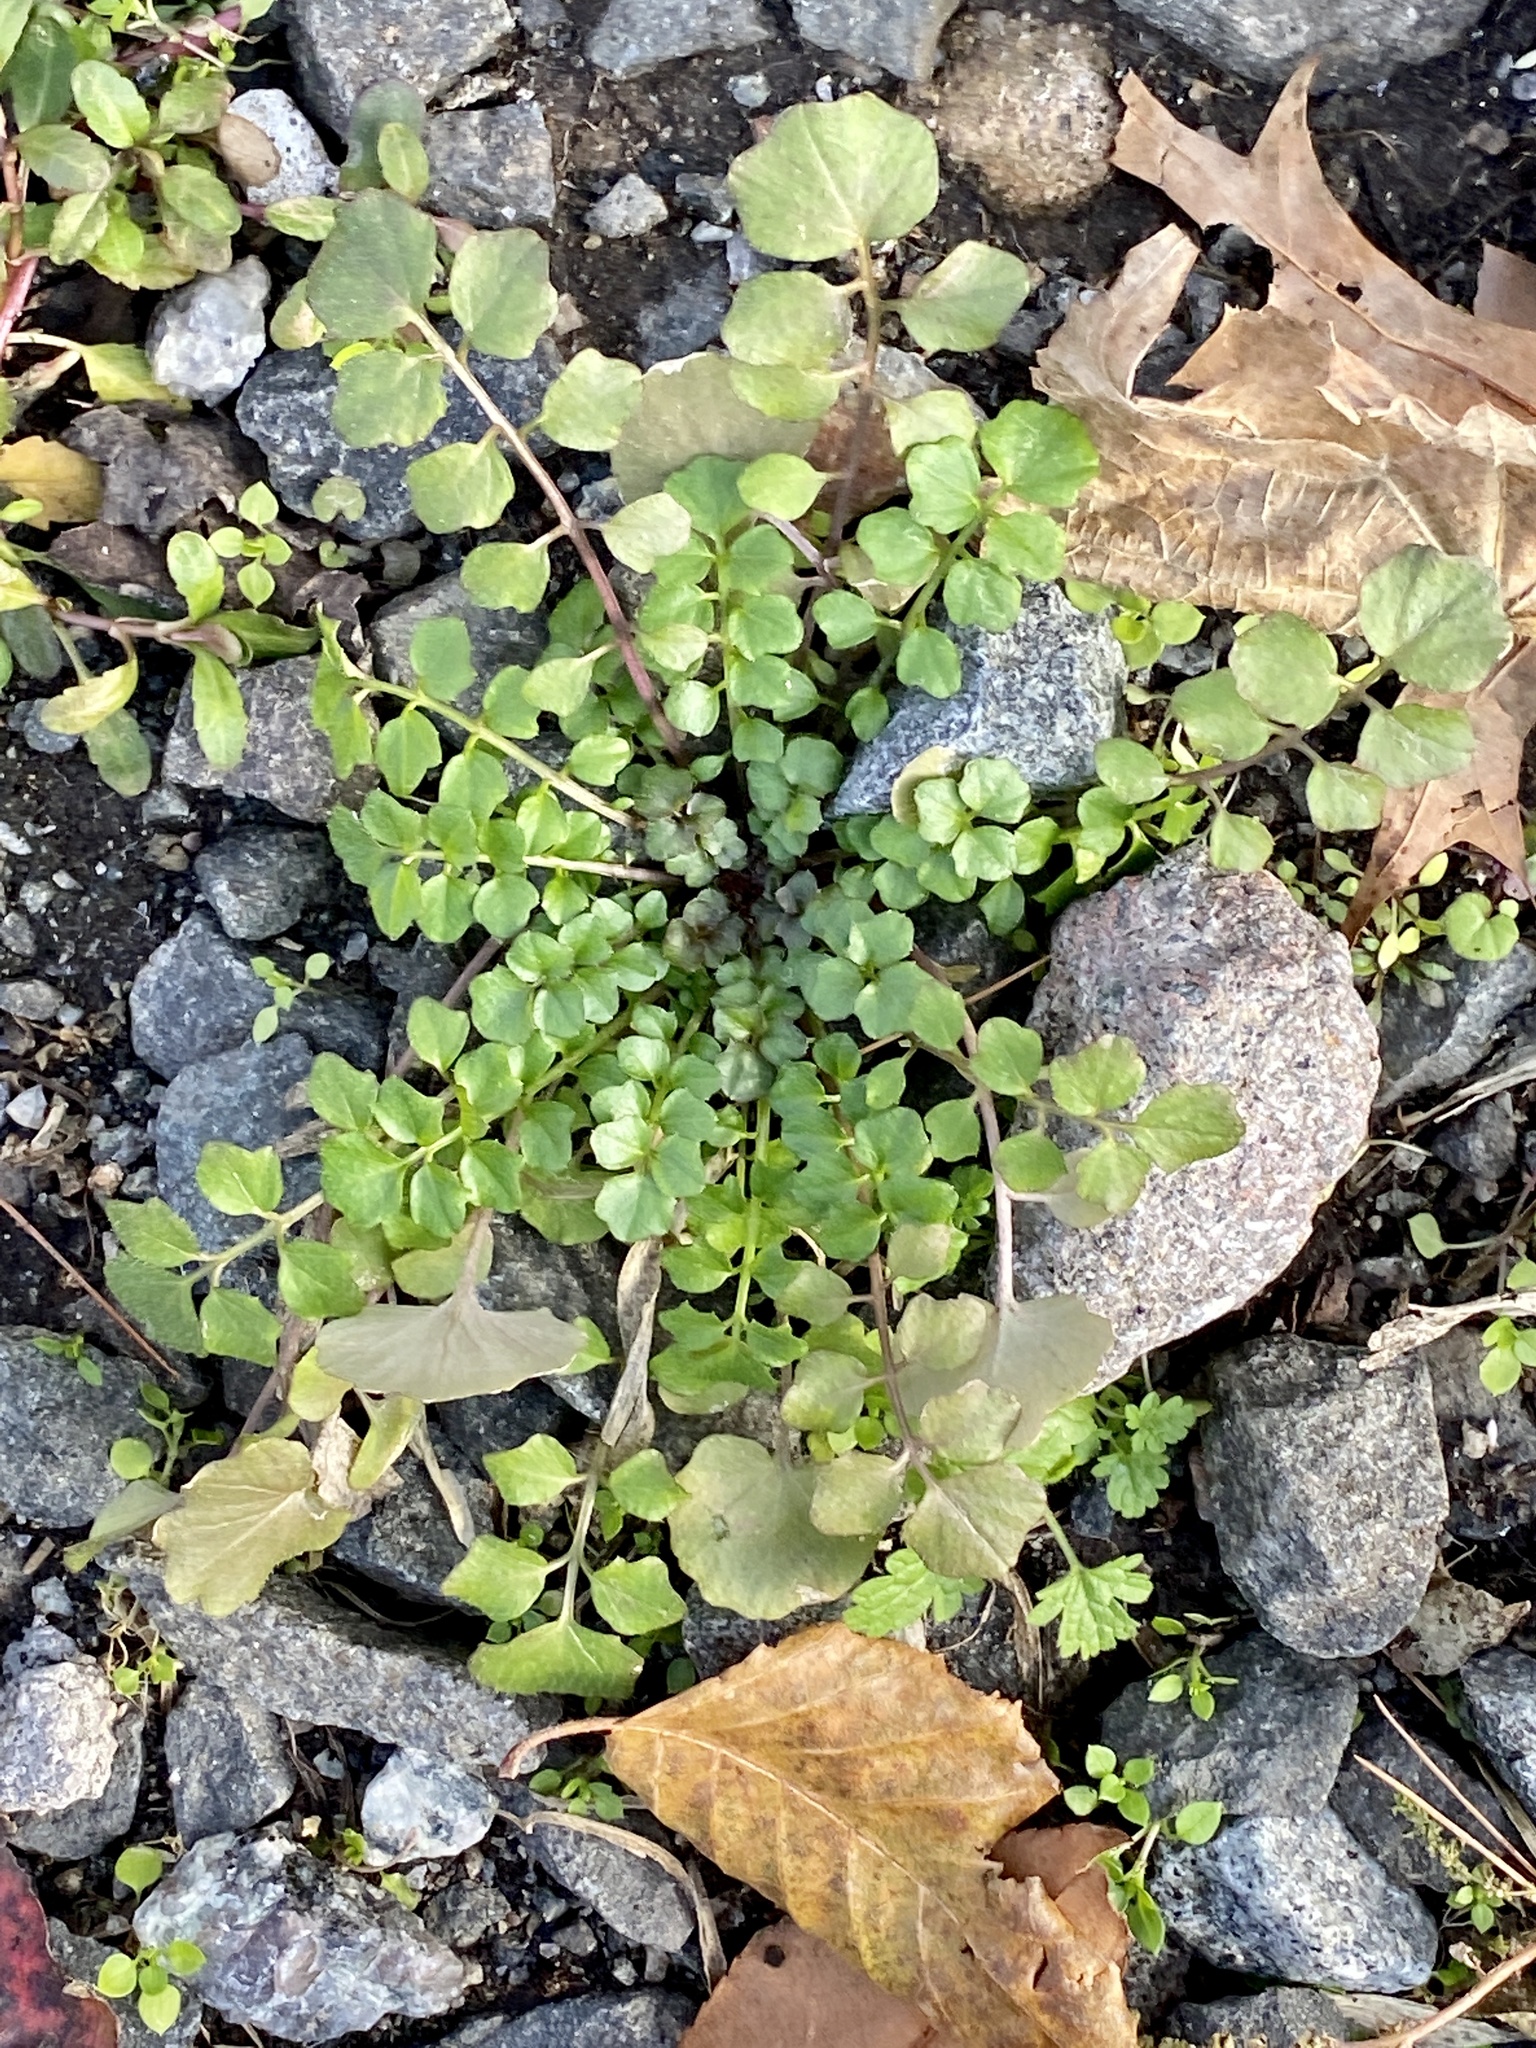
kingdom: Plantae
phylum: Tracheophyta
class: Magnoliopsida
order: Brassicales
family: Brassicaceae
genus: Cardamine
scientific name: Cardamine hirsuta
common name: Hairy bittercress
